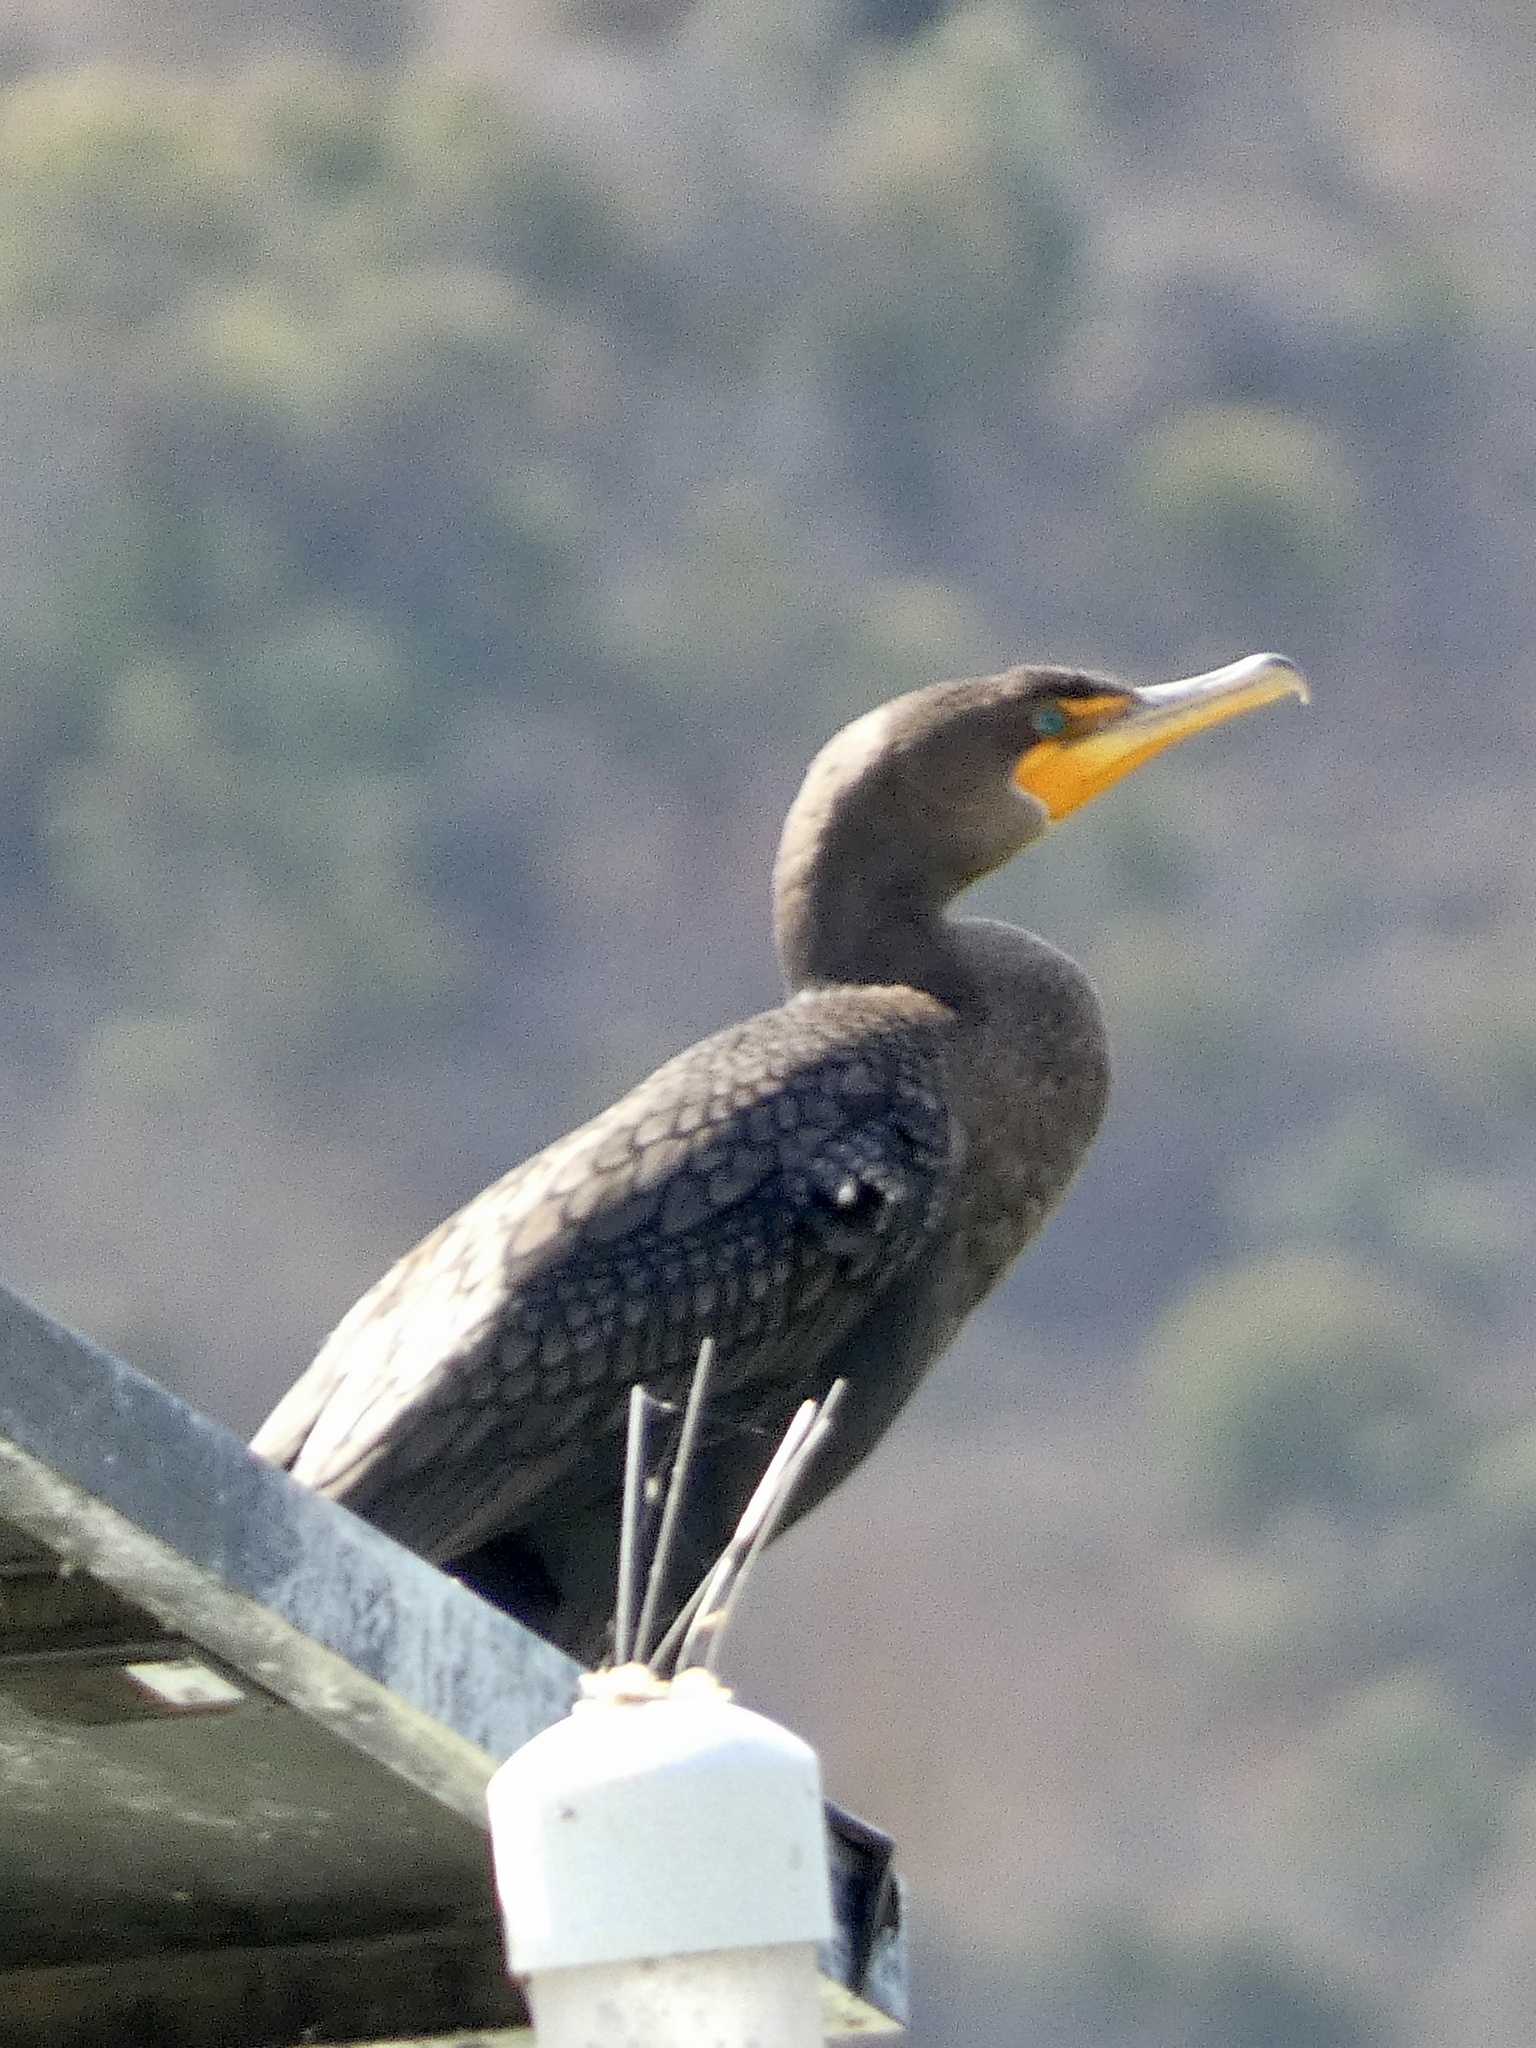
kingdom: Animalia
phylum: Chordata
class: Aves
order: Suliformes
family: Phalacrocoracidae
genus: Phalacrocorax
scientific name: Phalacrocorax auritus
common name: Double-crested cormorant
